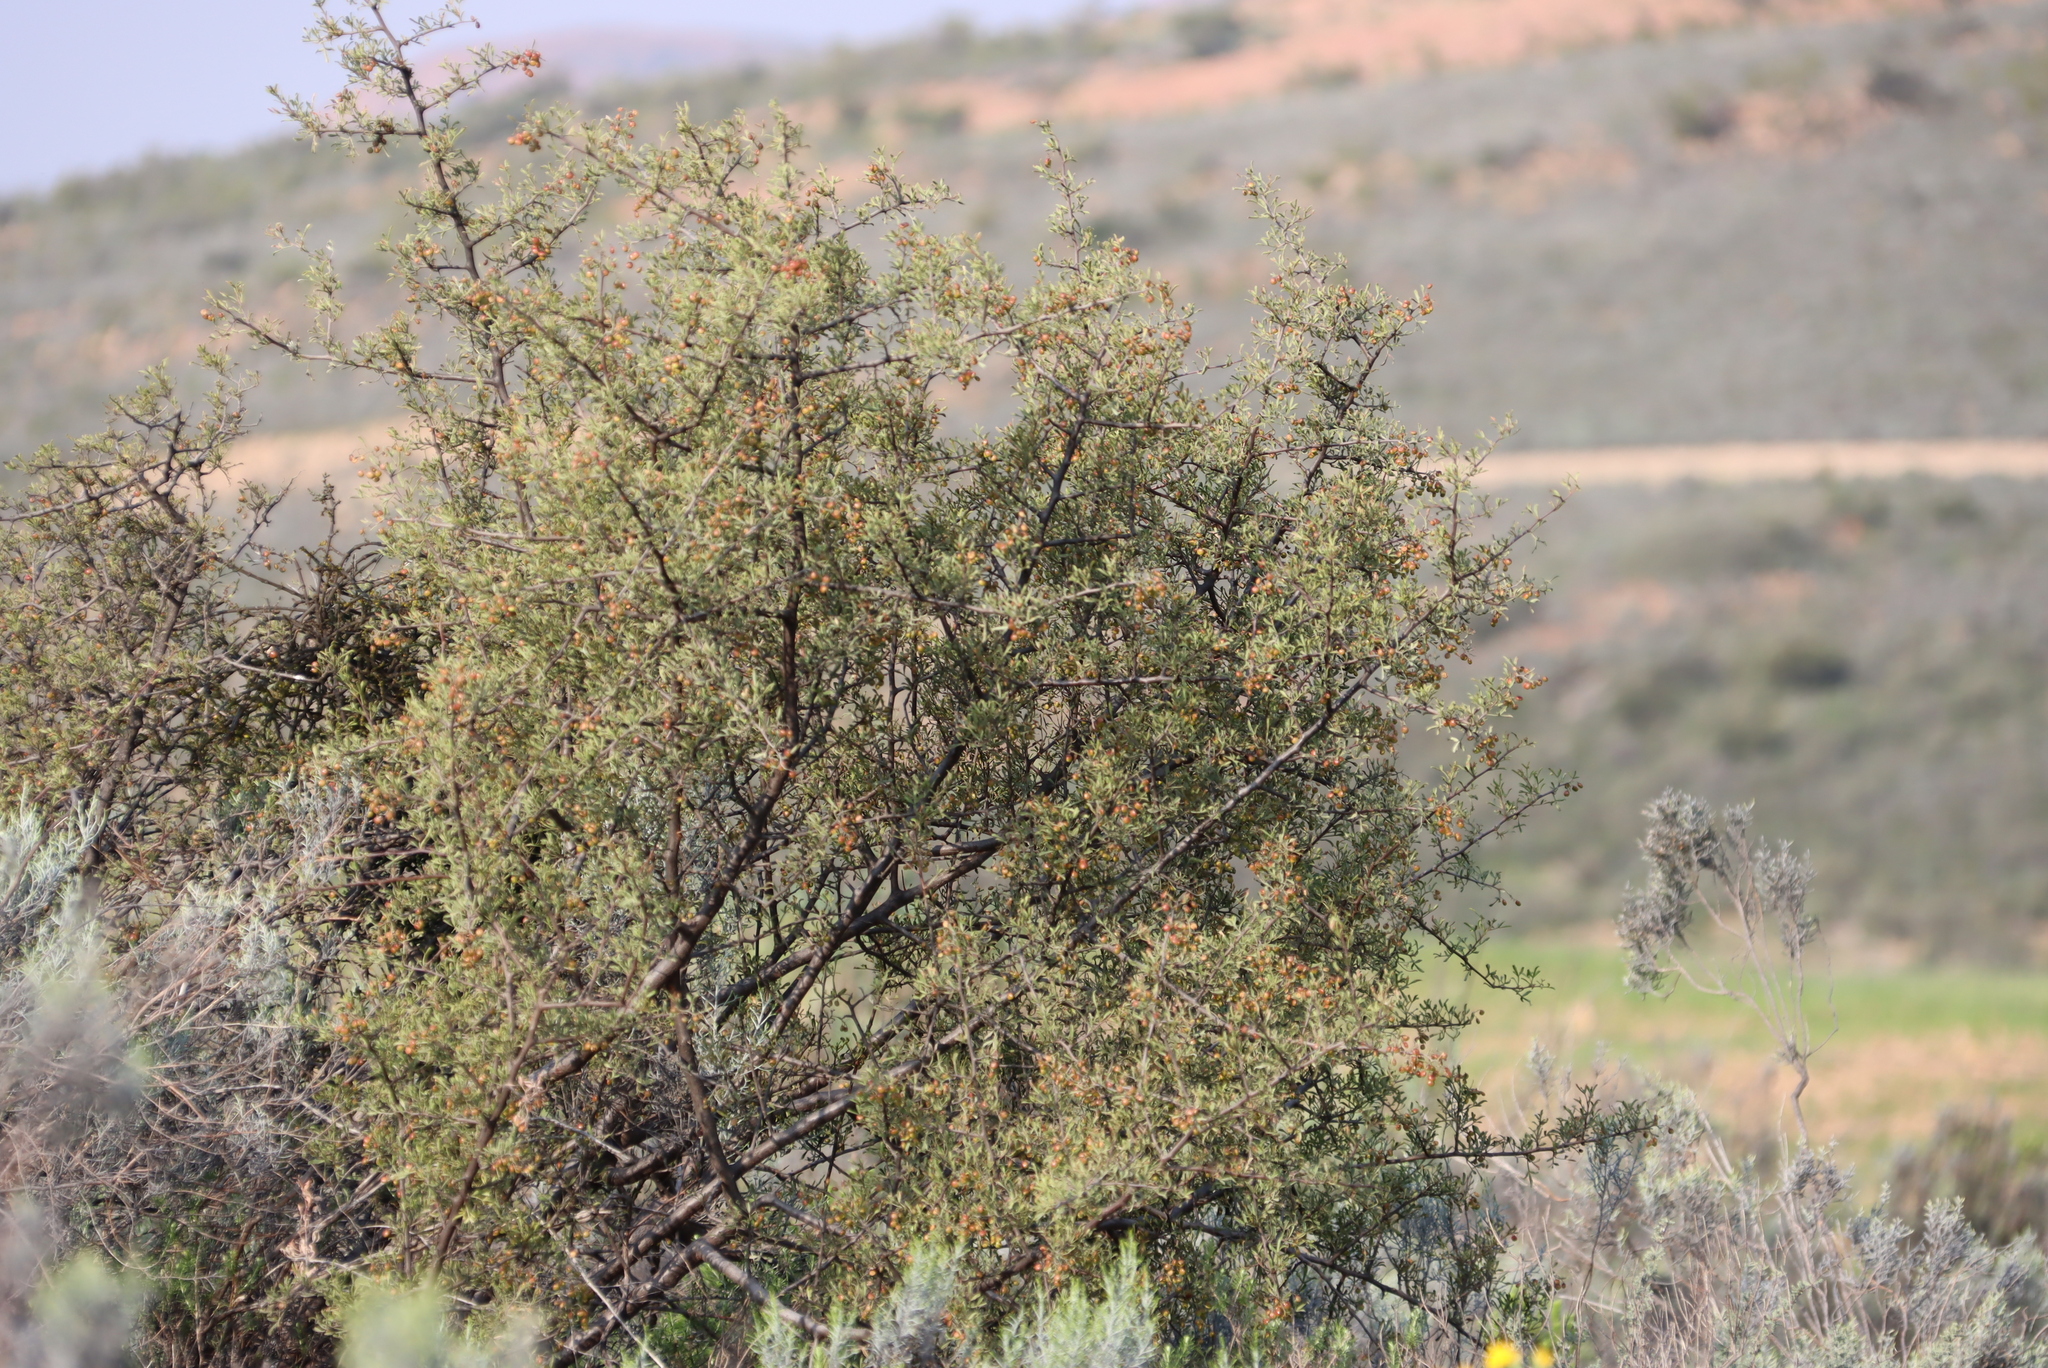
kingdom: Plantae
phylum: Tracheophyta
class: Magnoliopsida
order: Sapindales
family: Anacardiaceae
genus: Searsia
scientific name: Searsia undulata
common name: Namaqua kunibush
